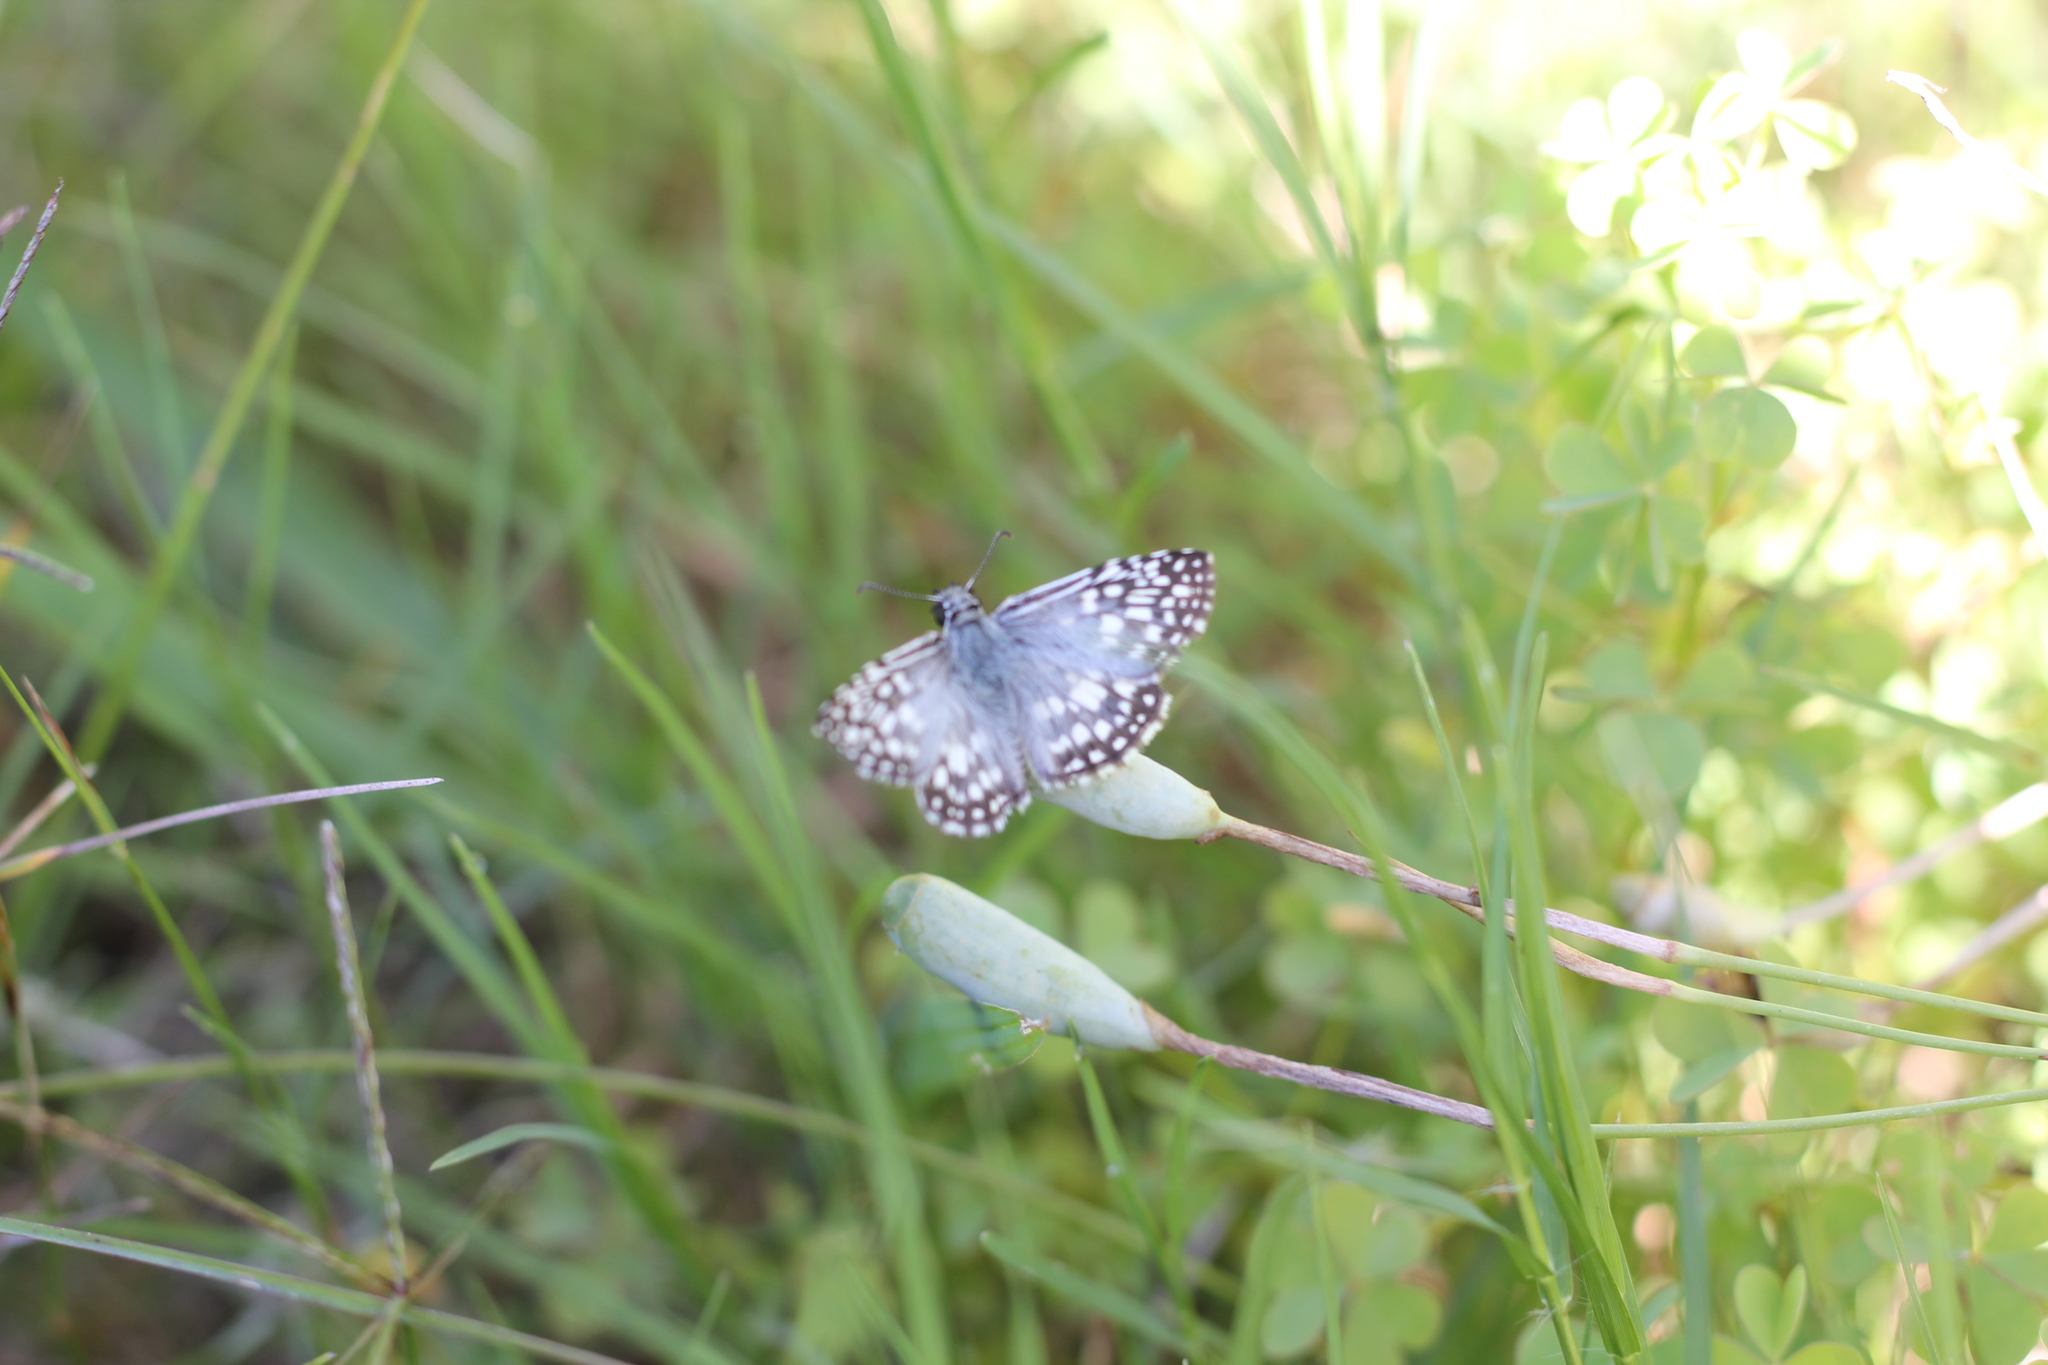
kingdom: Animalia
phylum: Arthropoda
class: Insecta
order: Lepidoptera
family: Hesperiidae
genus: Pyrgus
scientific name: Pyrgus oileus
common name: Tropical checkered-skipper
